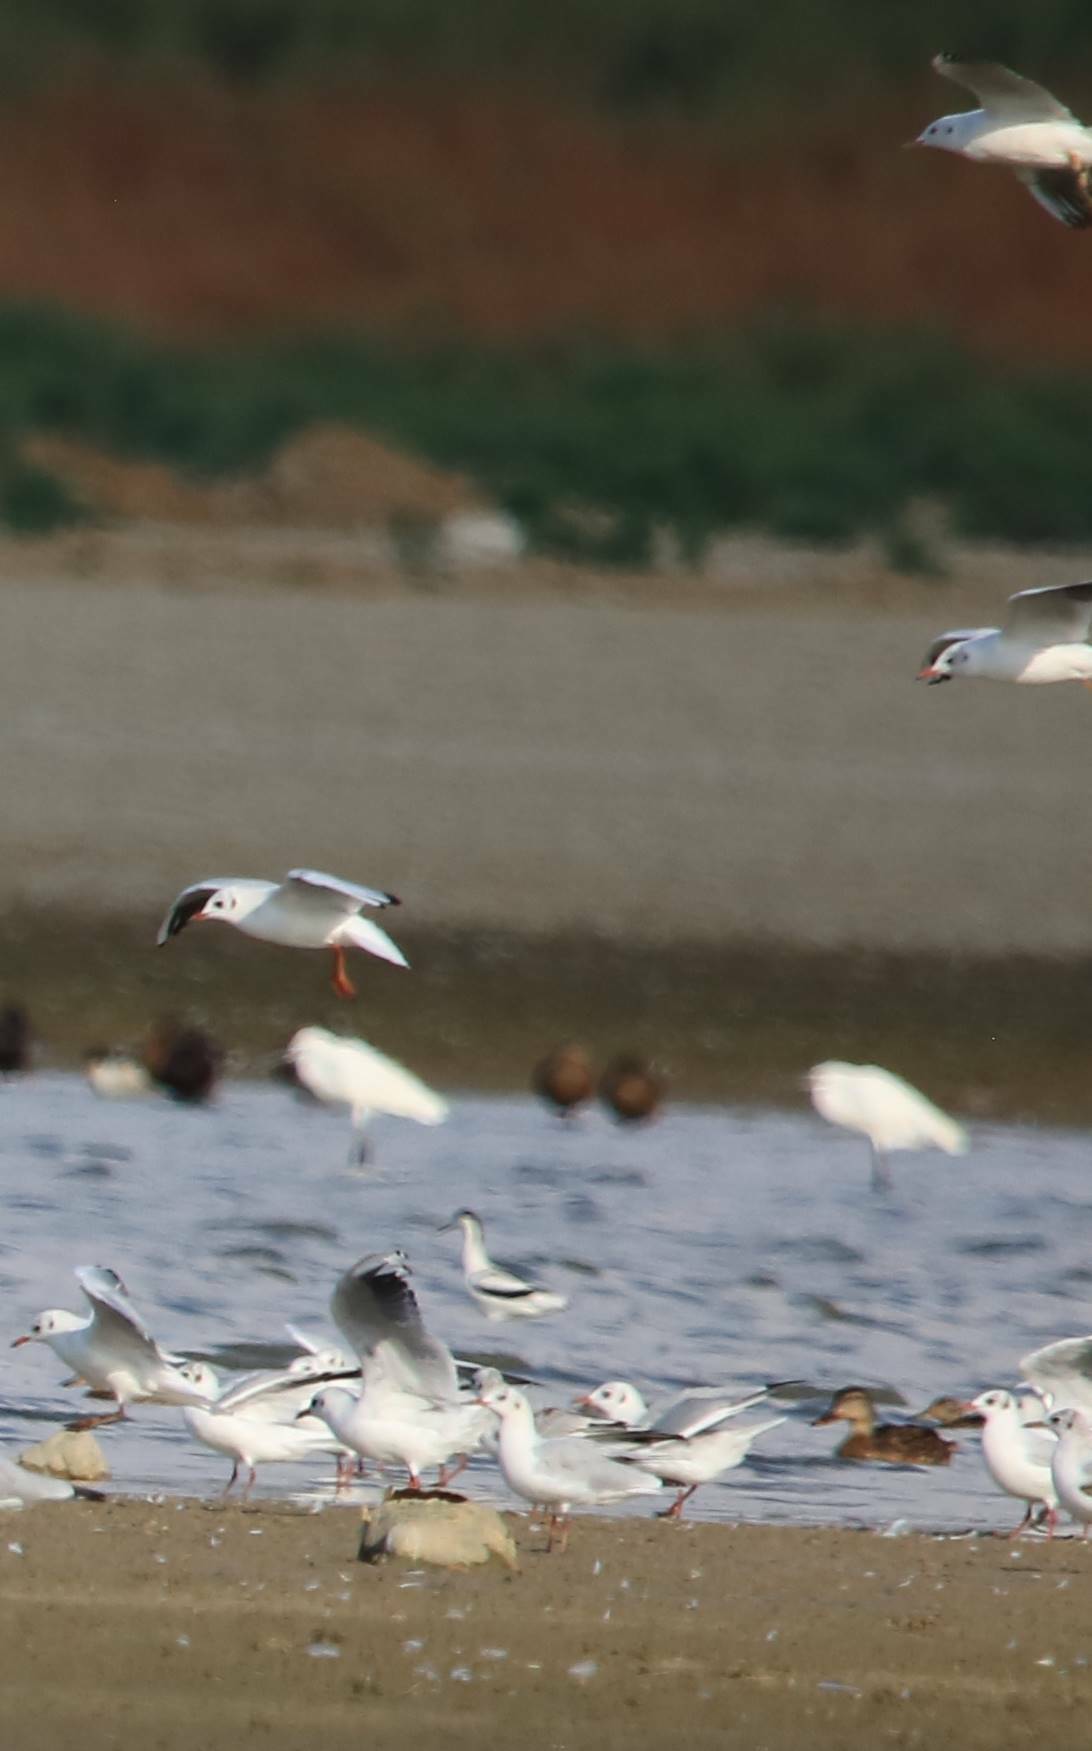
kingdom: Animalia
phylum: Chordata
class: Aves
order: Charadriiformes
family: Laridae
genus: Chroicocephalus
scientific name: Chroicocephalus ridibundus
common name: Black-headed gull
